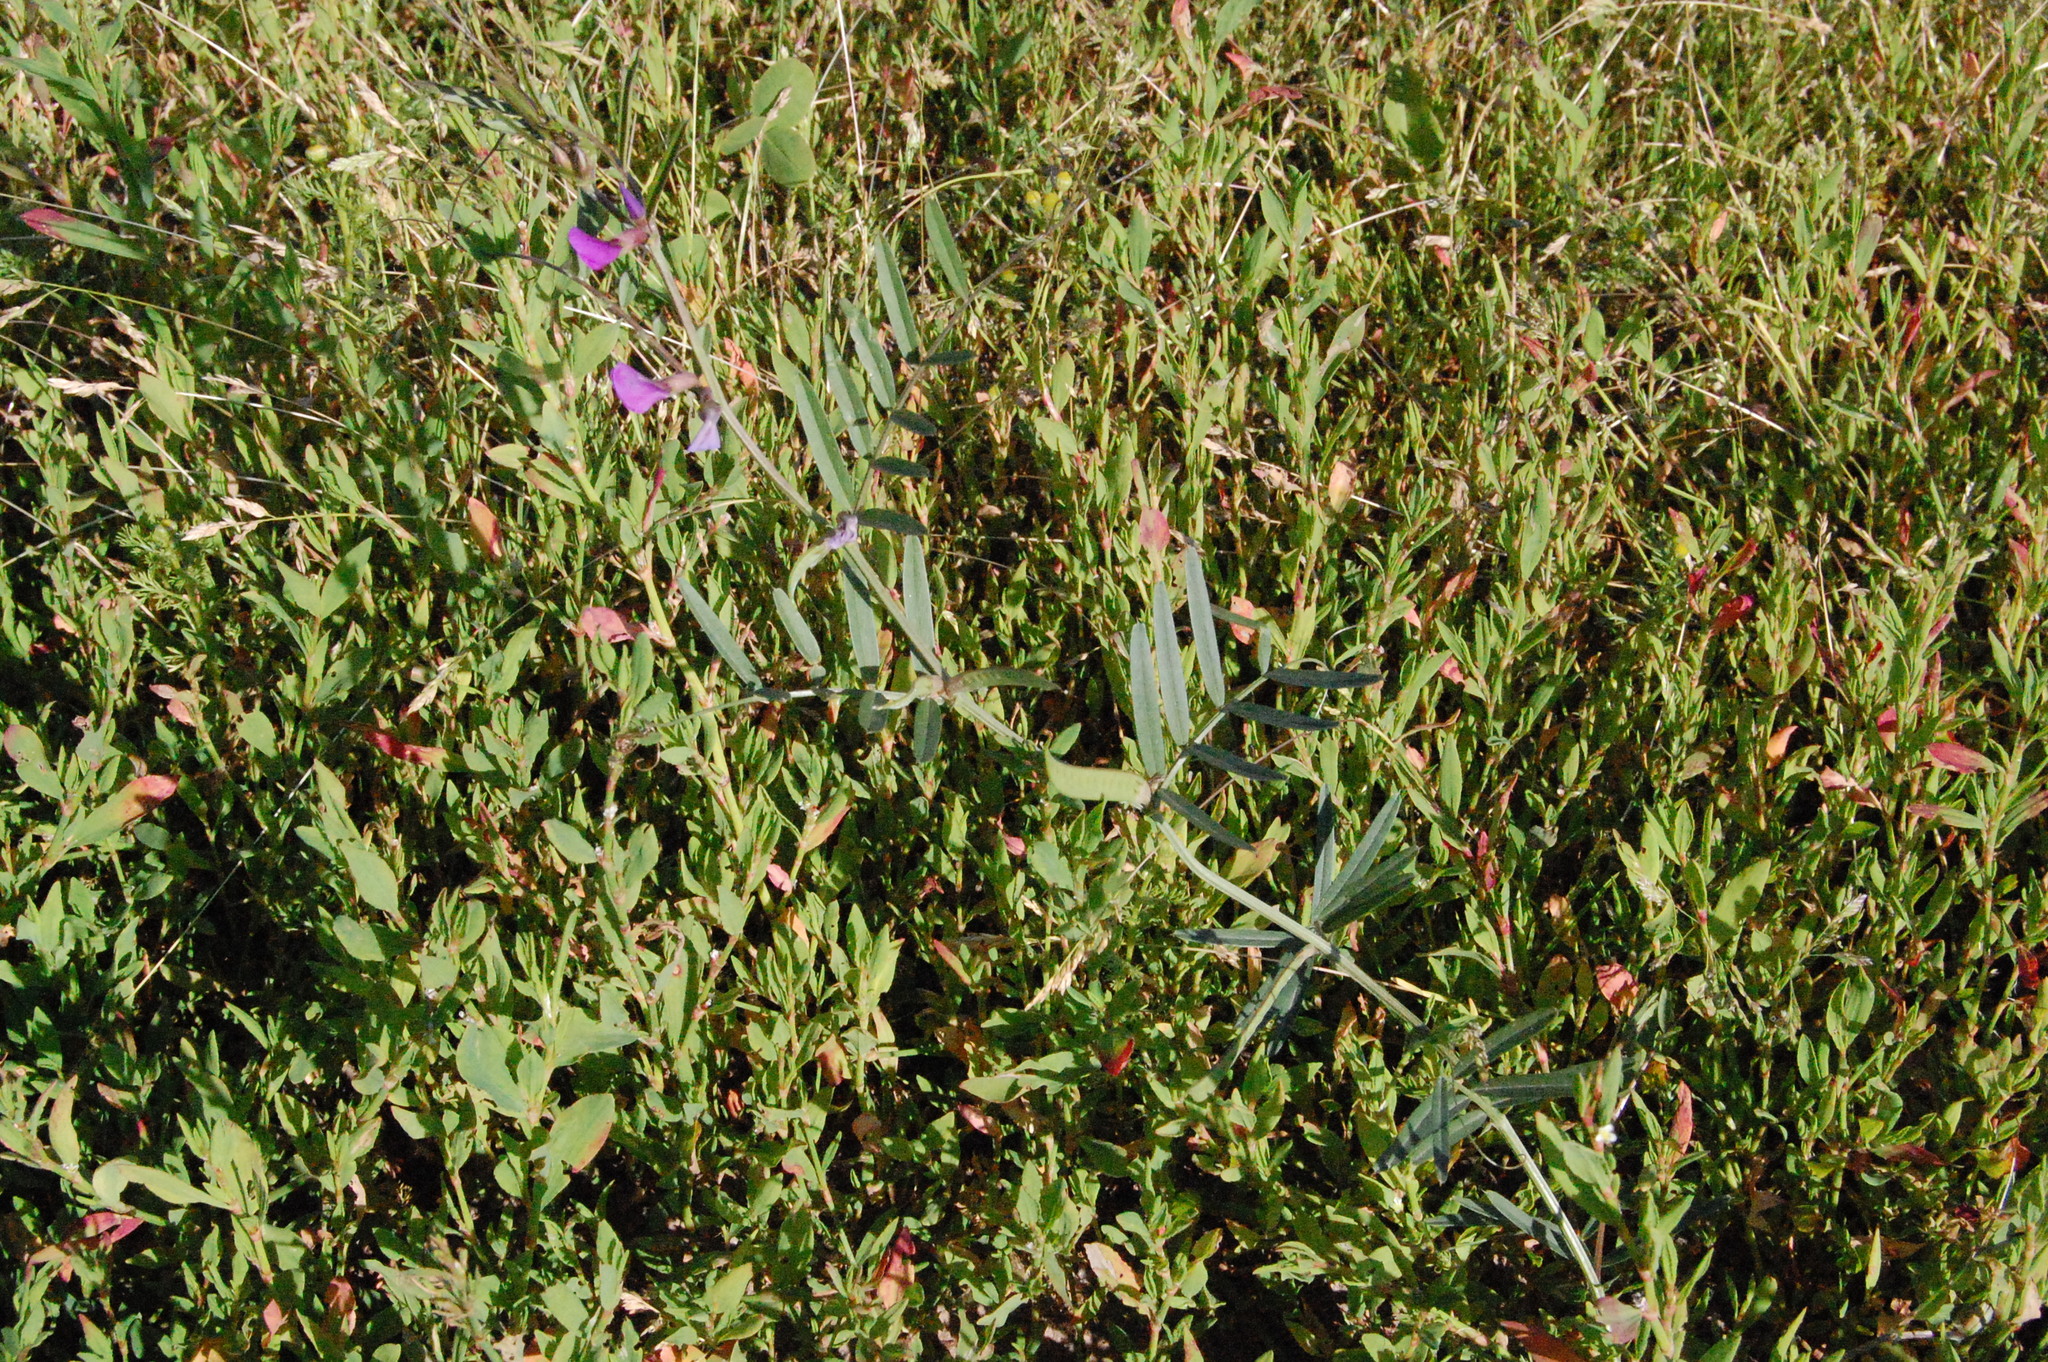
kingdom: Plantae
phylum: Tracheophyta
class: Magnoliopsida
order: Fabales
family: Fabaceae
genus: Vicia
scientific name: Vicia sativa
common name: Garden vetch
